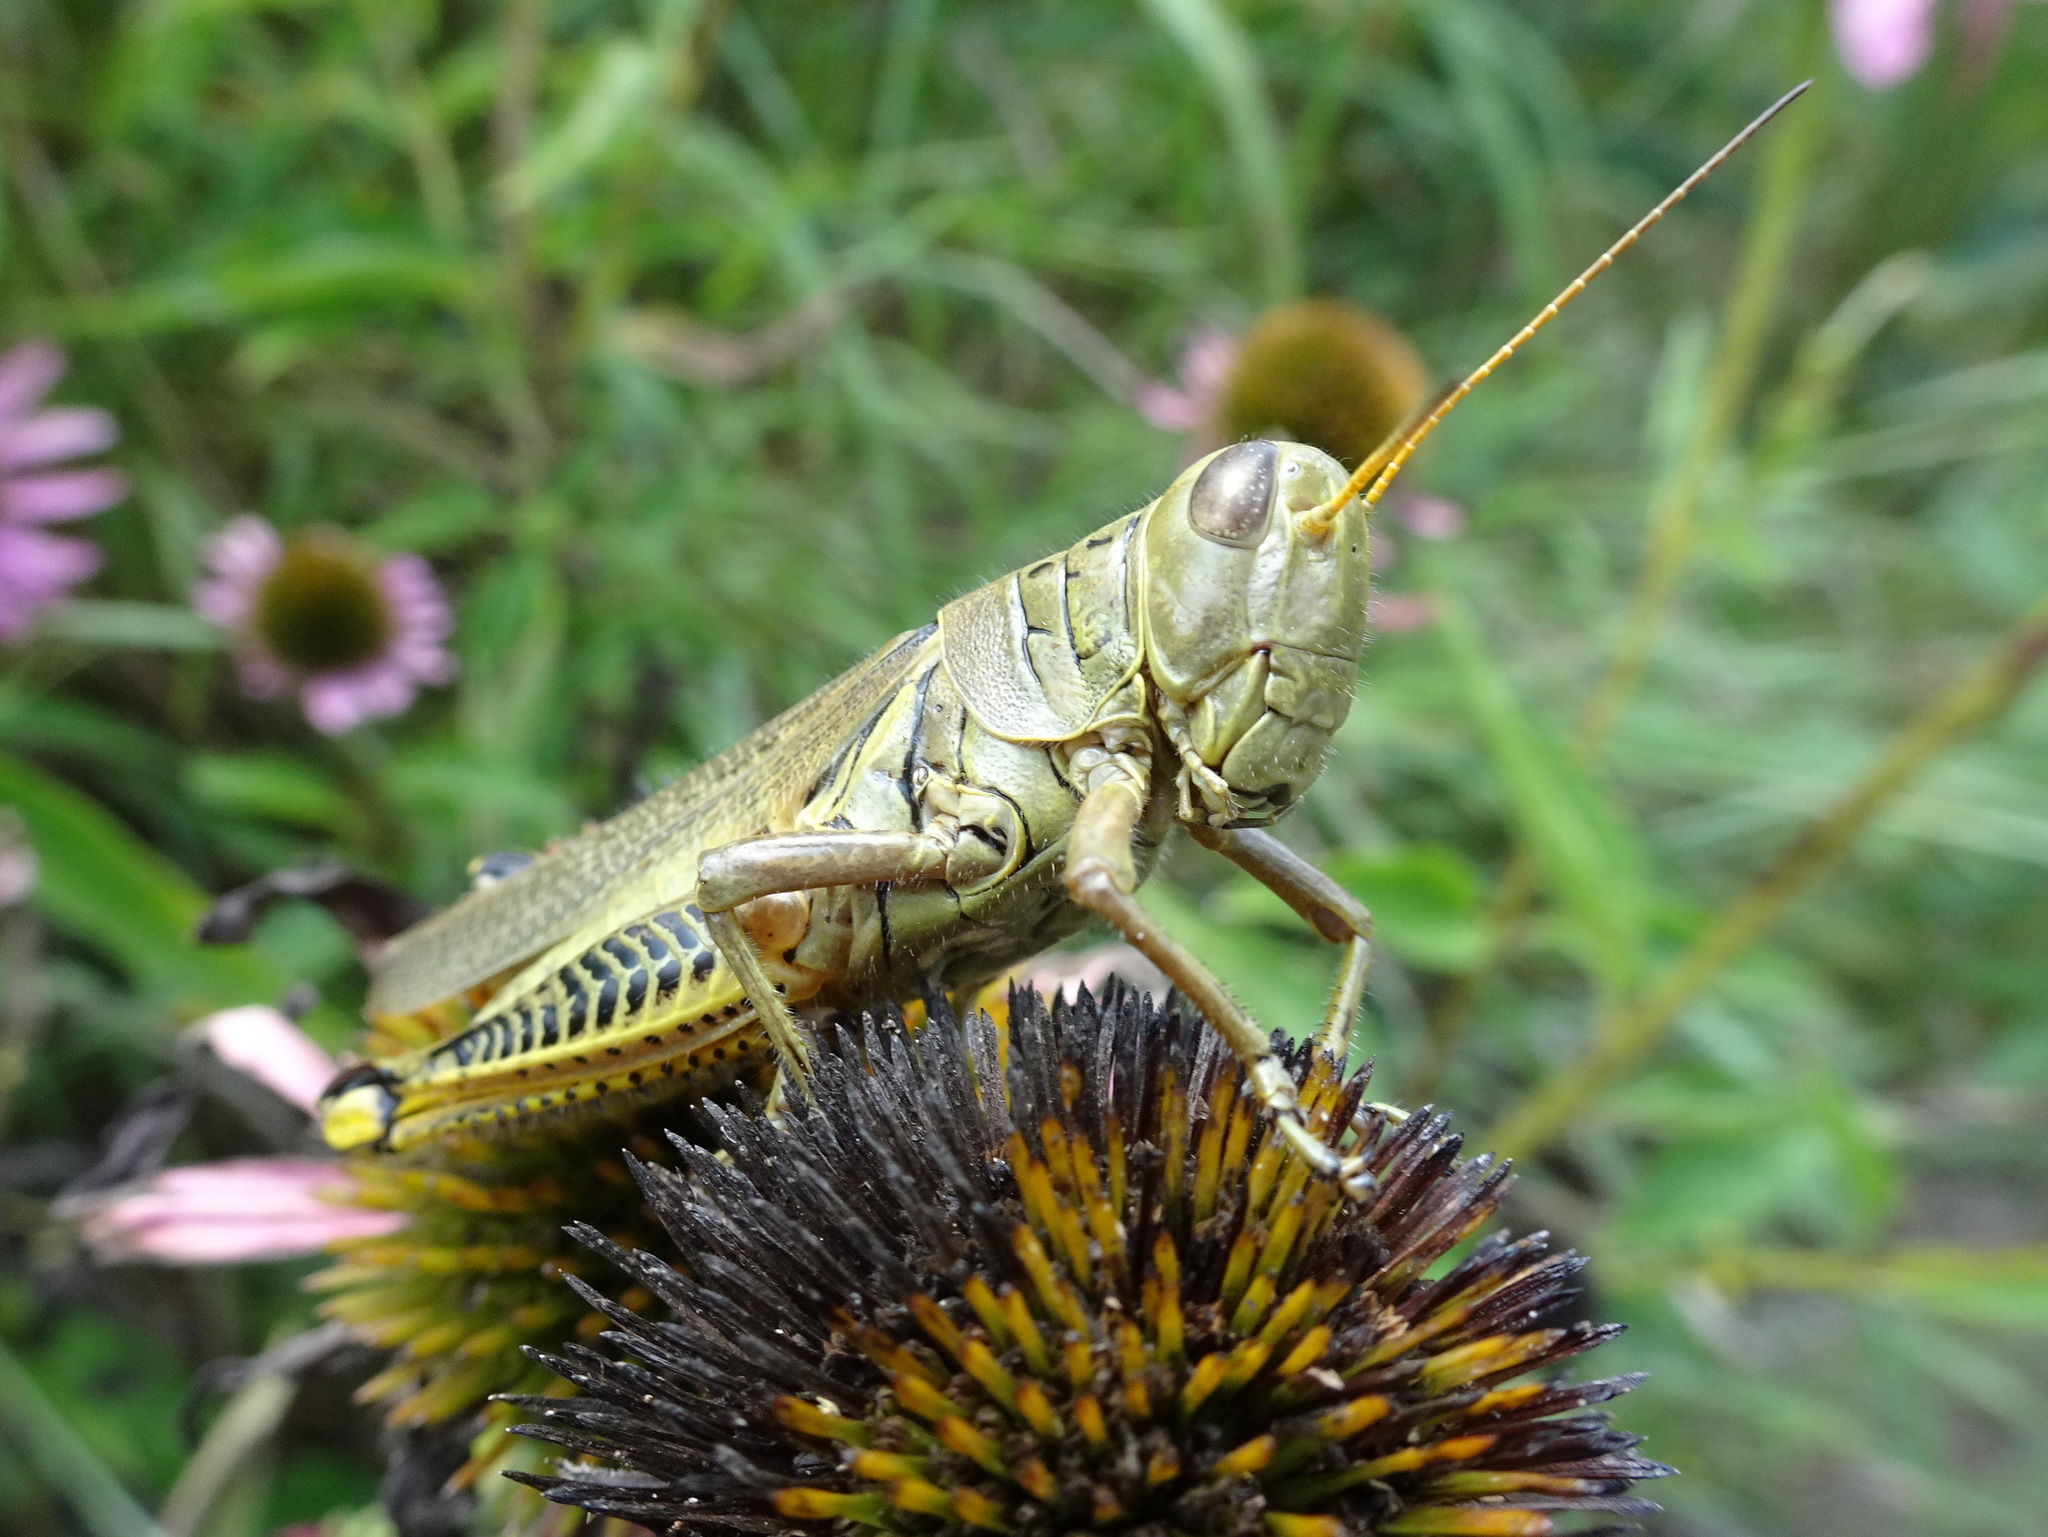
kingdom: Animalia
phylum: Arthropoda
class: Insecta
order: Orthoptera
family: Acrididae
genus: Melanoplus
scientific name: Melanoplus differentialis
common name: Differential grasshopper
